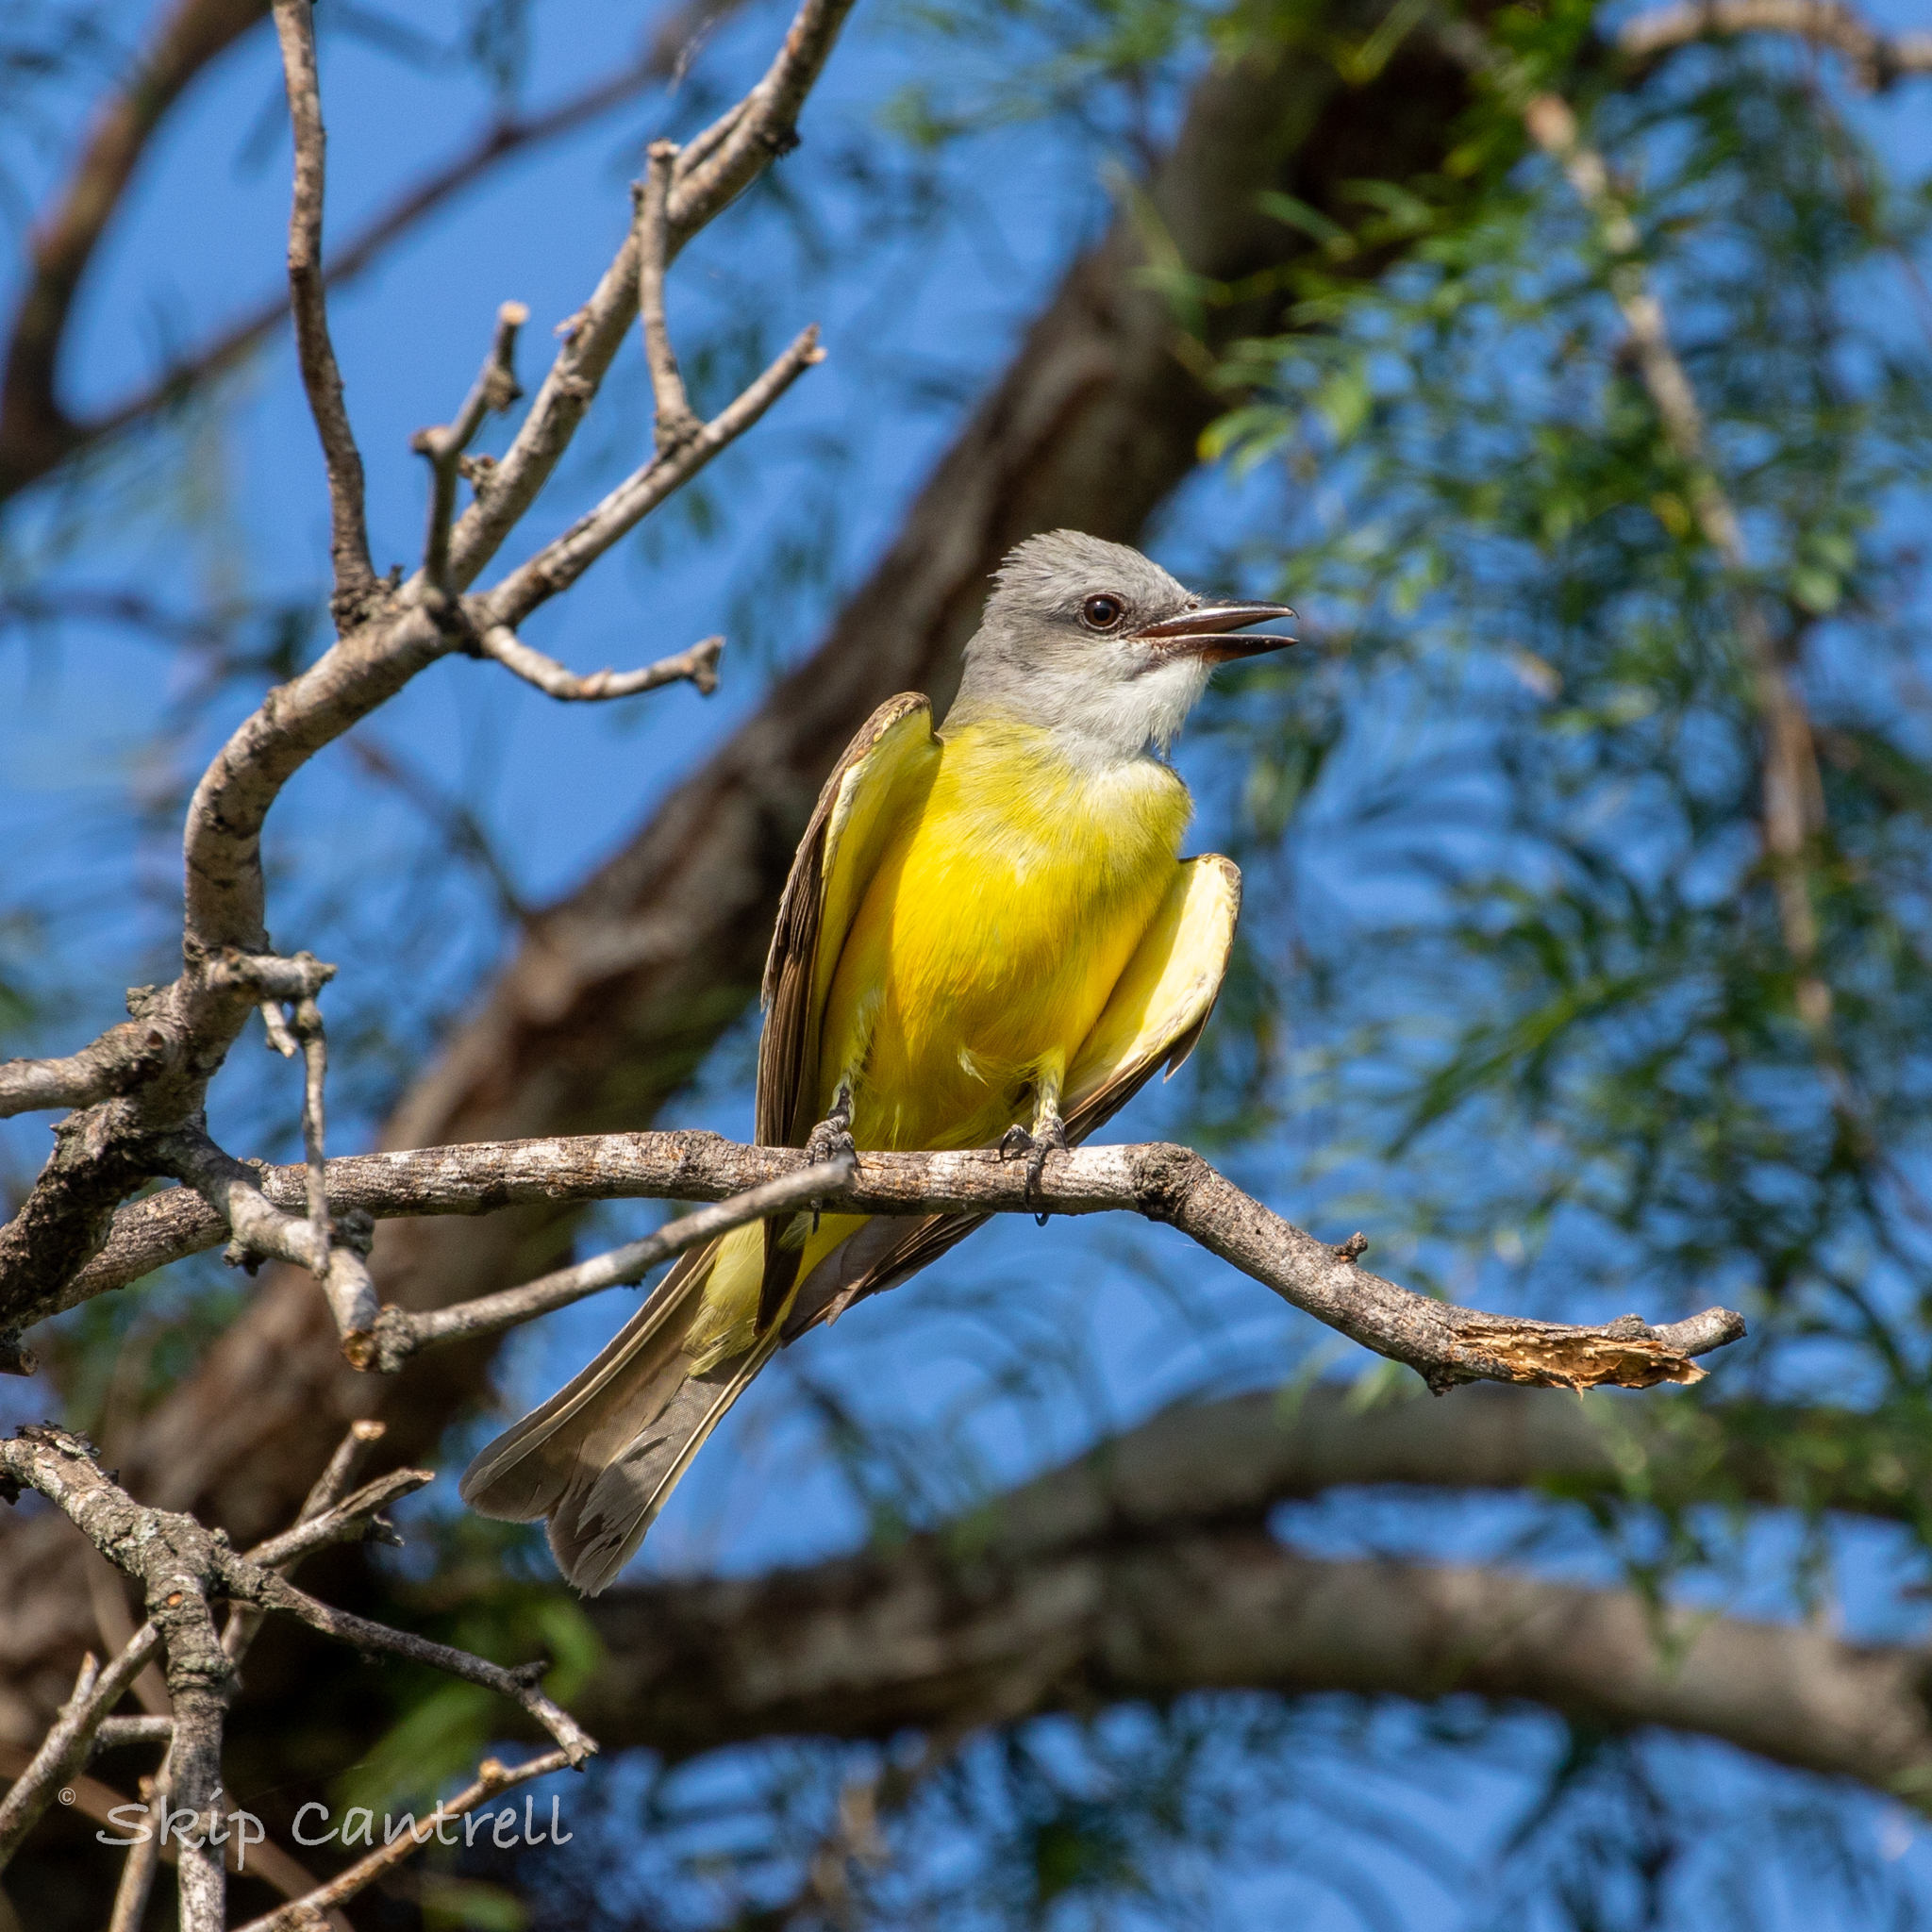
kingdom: Animalia
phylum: Chordata
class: Aves
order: Passeriformes
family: Tyrannidae
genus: Tyrannus
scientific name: Tyrannus couchii
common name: Couch's kingbird
